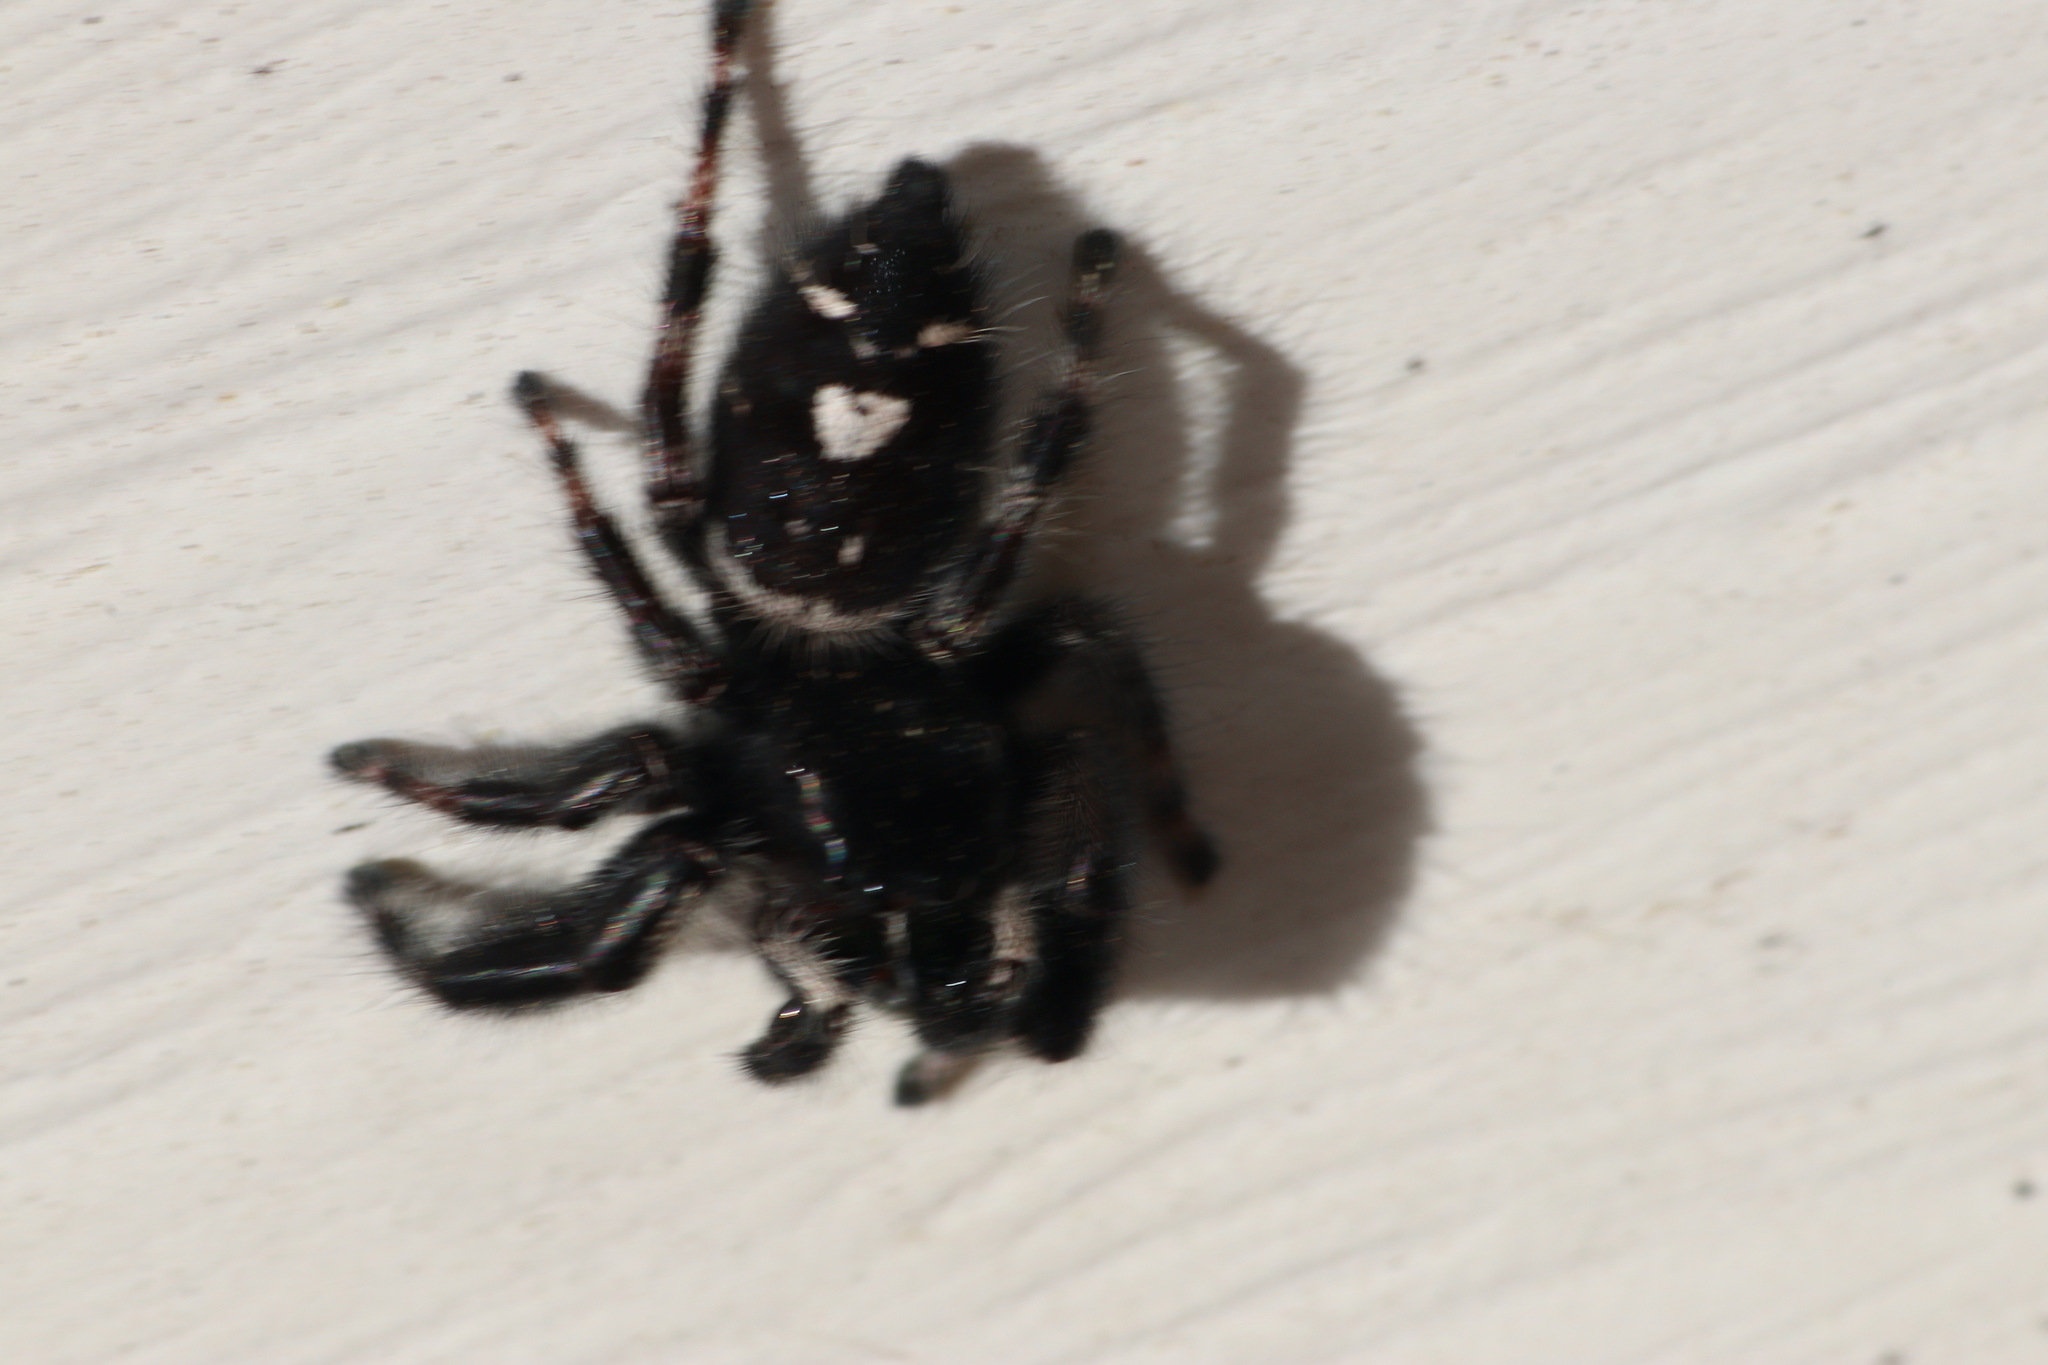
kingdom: Animalia
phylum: Arthropoda
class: Arachnida
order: Araneae
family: Salticidae
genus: Phidippus
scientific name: Phidippus audax
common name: Bold jumper
